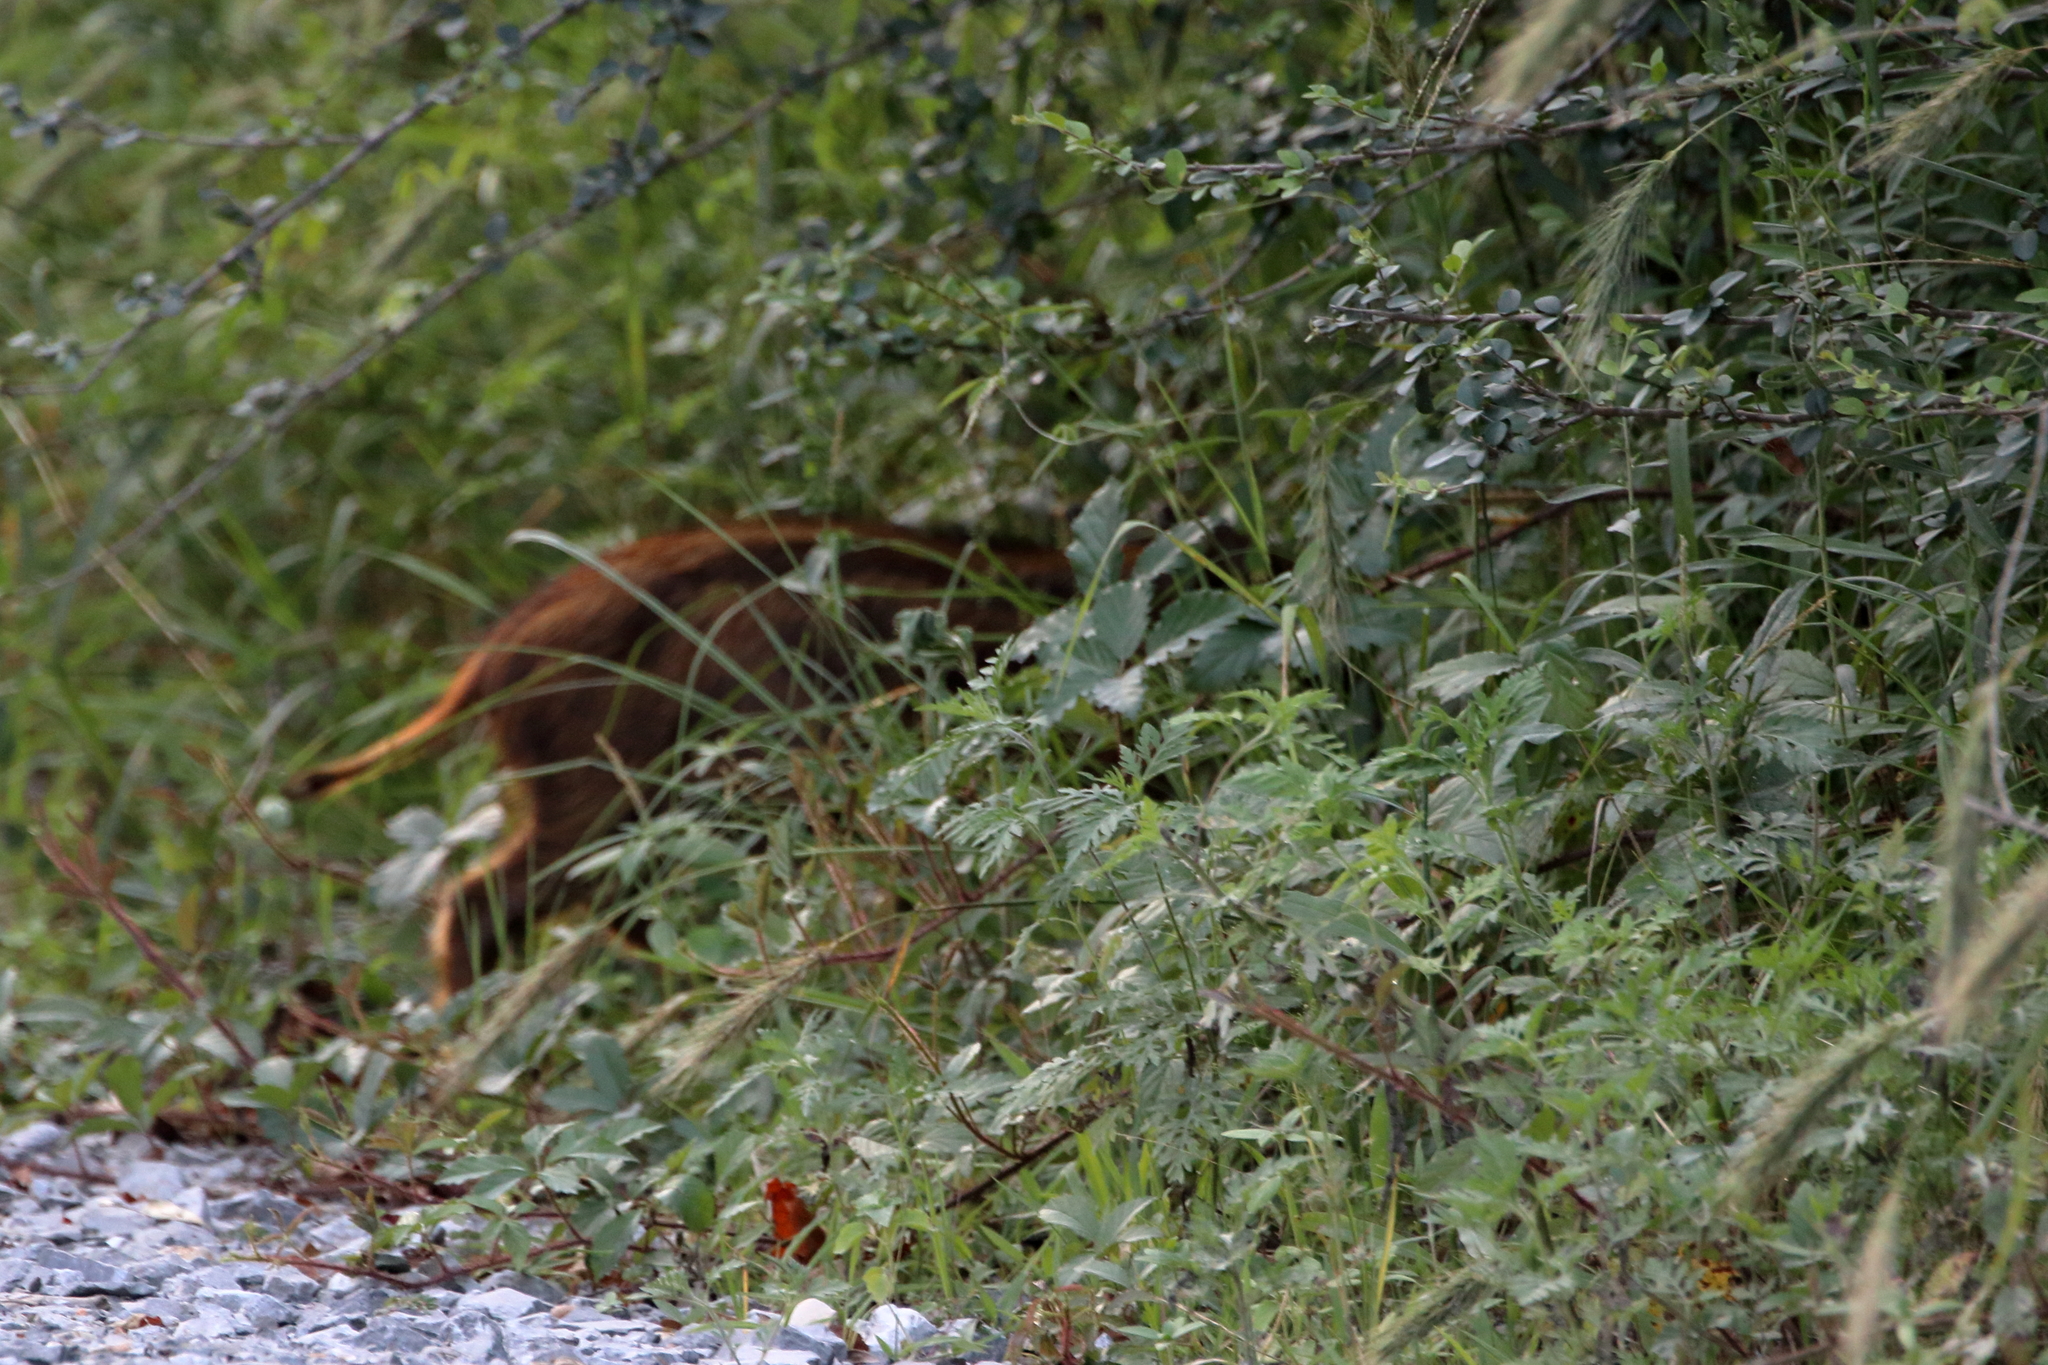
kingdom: Animalia
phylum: Chordata
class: Mammalia
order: Artiodactyla
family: Suidae
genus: Sus
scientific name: Sus scrofa
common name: Wild boar
